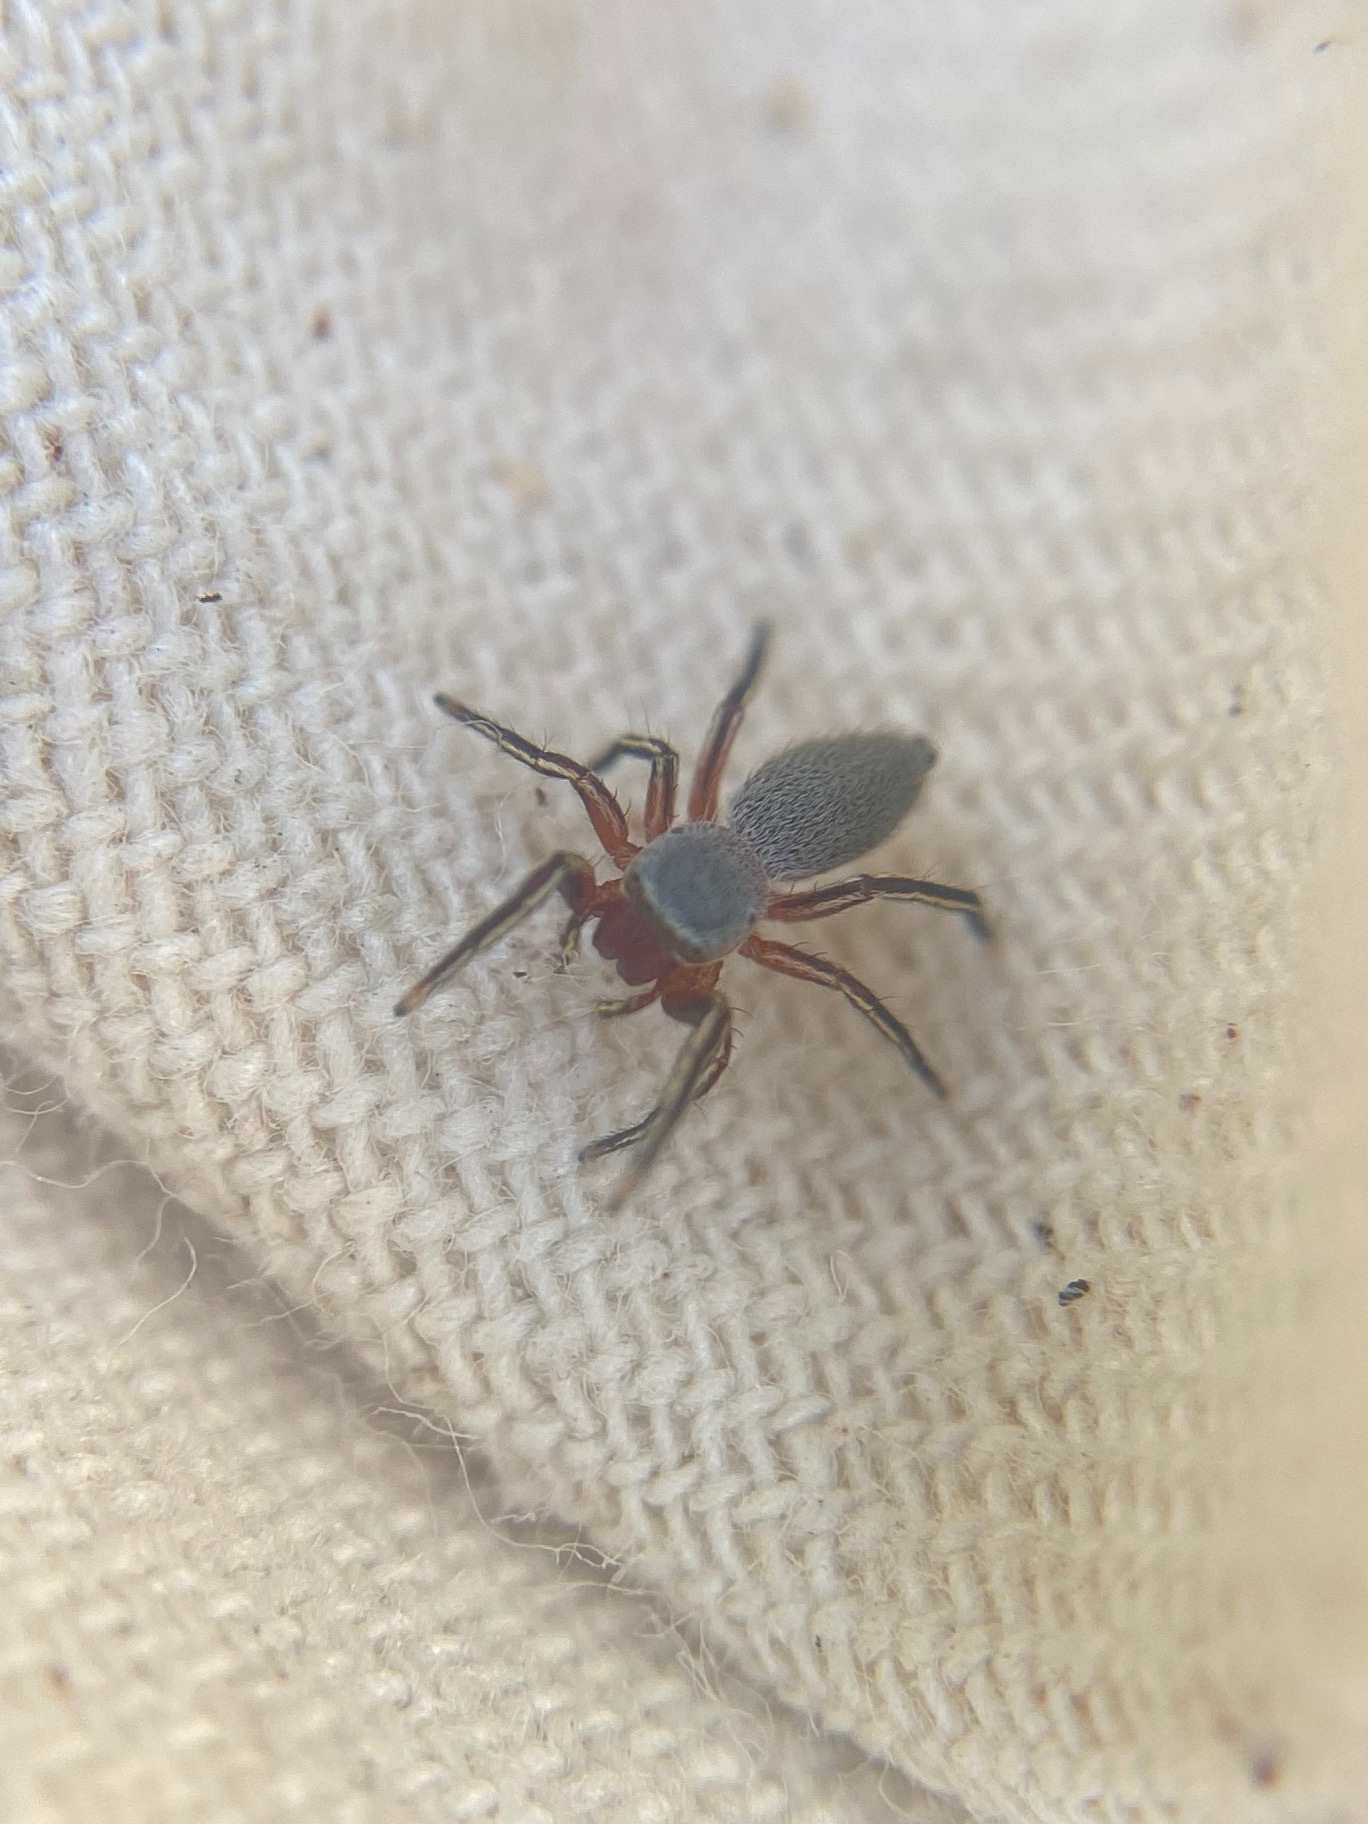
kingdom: Animalia
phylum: Arthropoda
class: Arachnida
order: Araneae
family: Salticidae
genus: Tutelina
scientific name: Tutelina similis
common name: Thick-spined jumping spider
